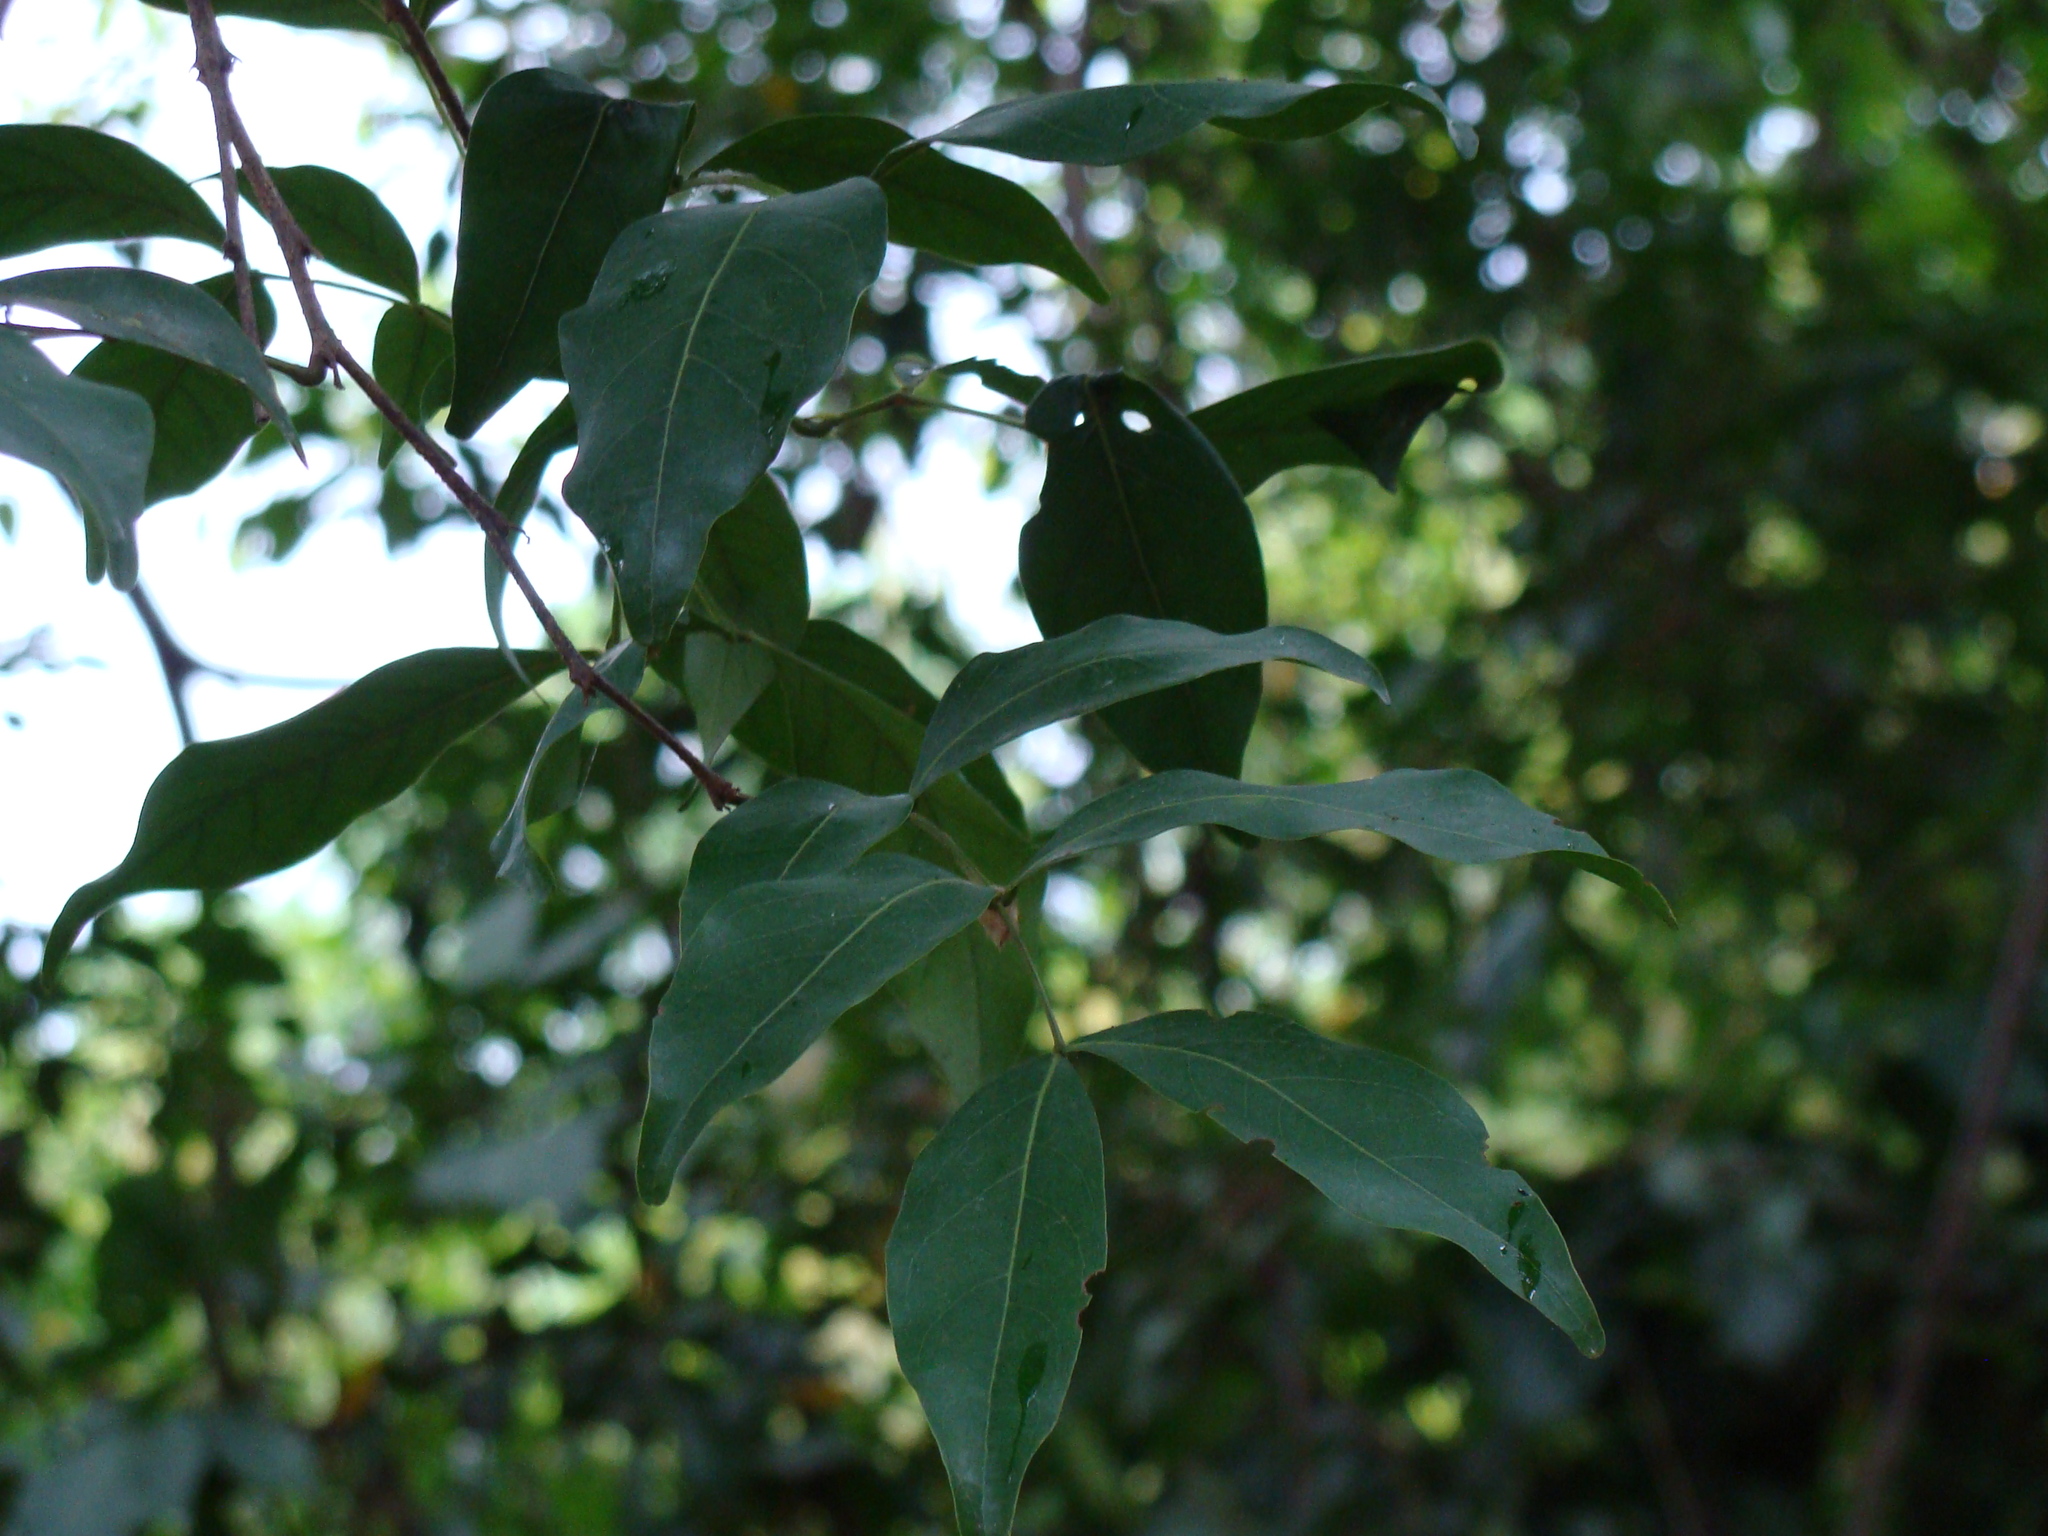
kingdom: Plantae
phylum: Tracheophyta
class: Magnoliopsida
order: Fabales
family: Fabaceae
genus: Inga
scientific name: Inga punctata
